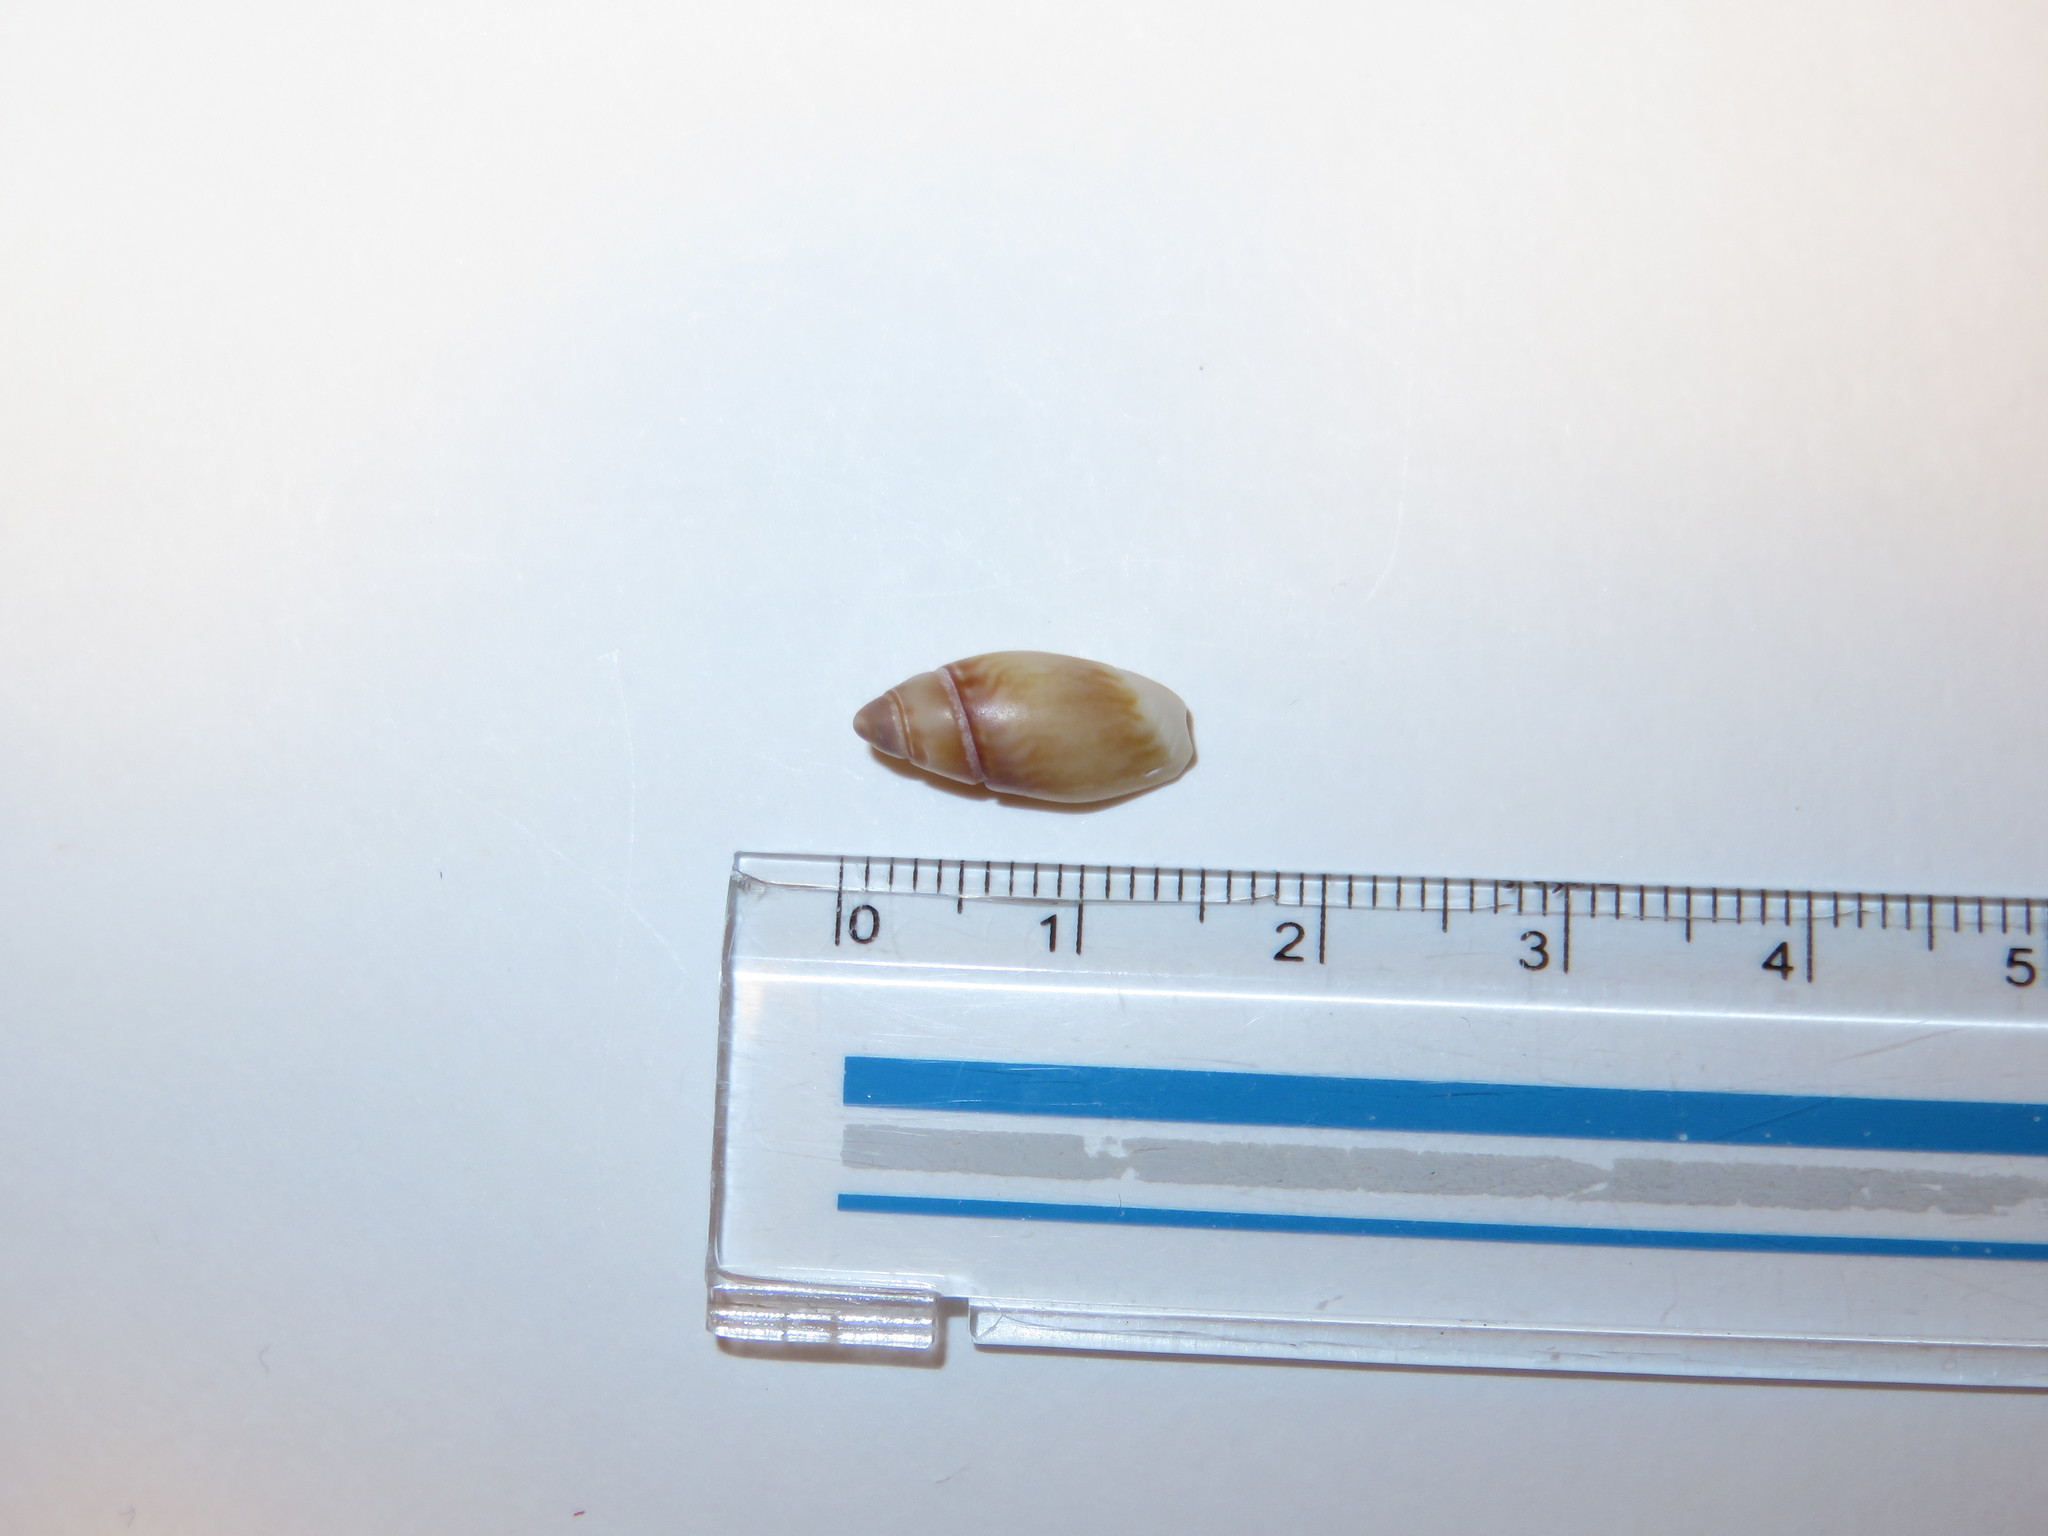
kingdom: Animalia
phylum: Mollusca
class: Gastropoda
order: Neogastropoda
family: Olividae
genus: Olivella
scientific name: Olivella mandarina
